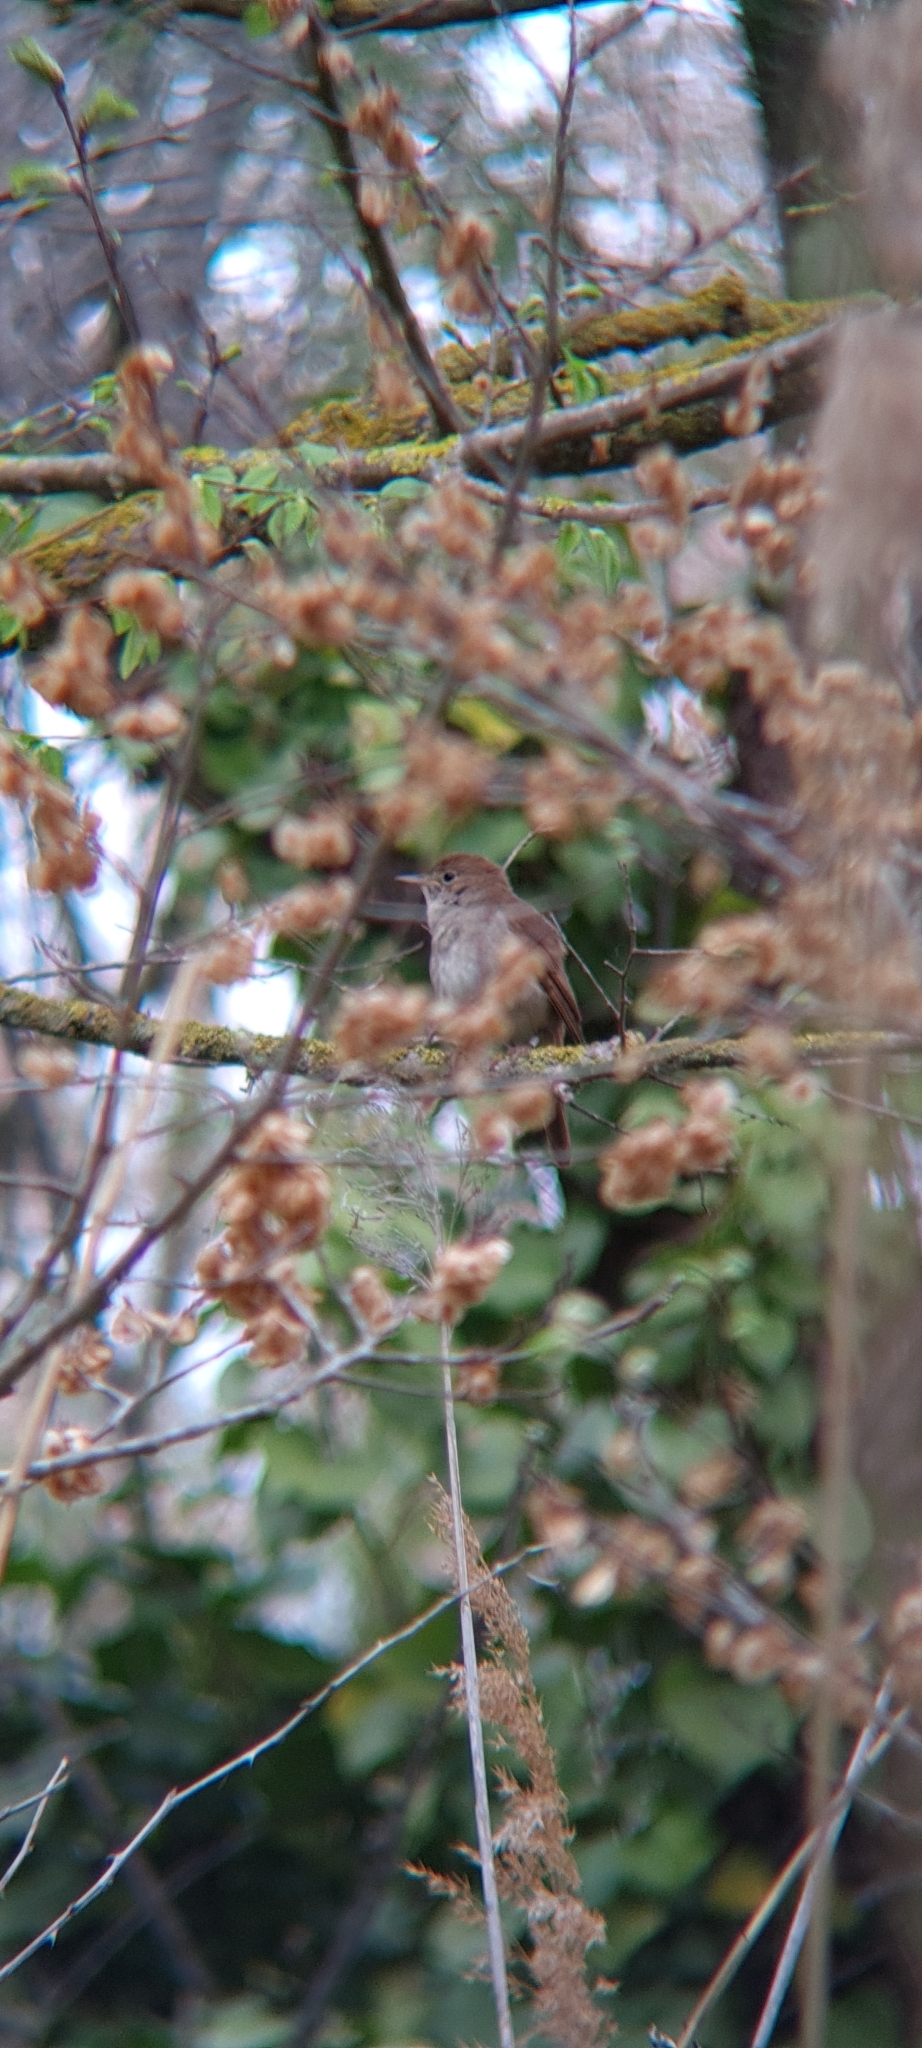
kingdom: Animalia
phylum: Chordata
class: Aves
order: Passeriformes
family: Muscicapidae
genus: Luscinia
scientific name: Luscinia megarhynchos
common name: Common nightingale
